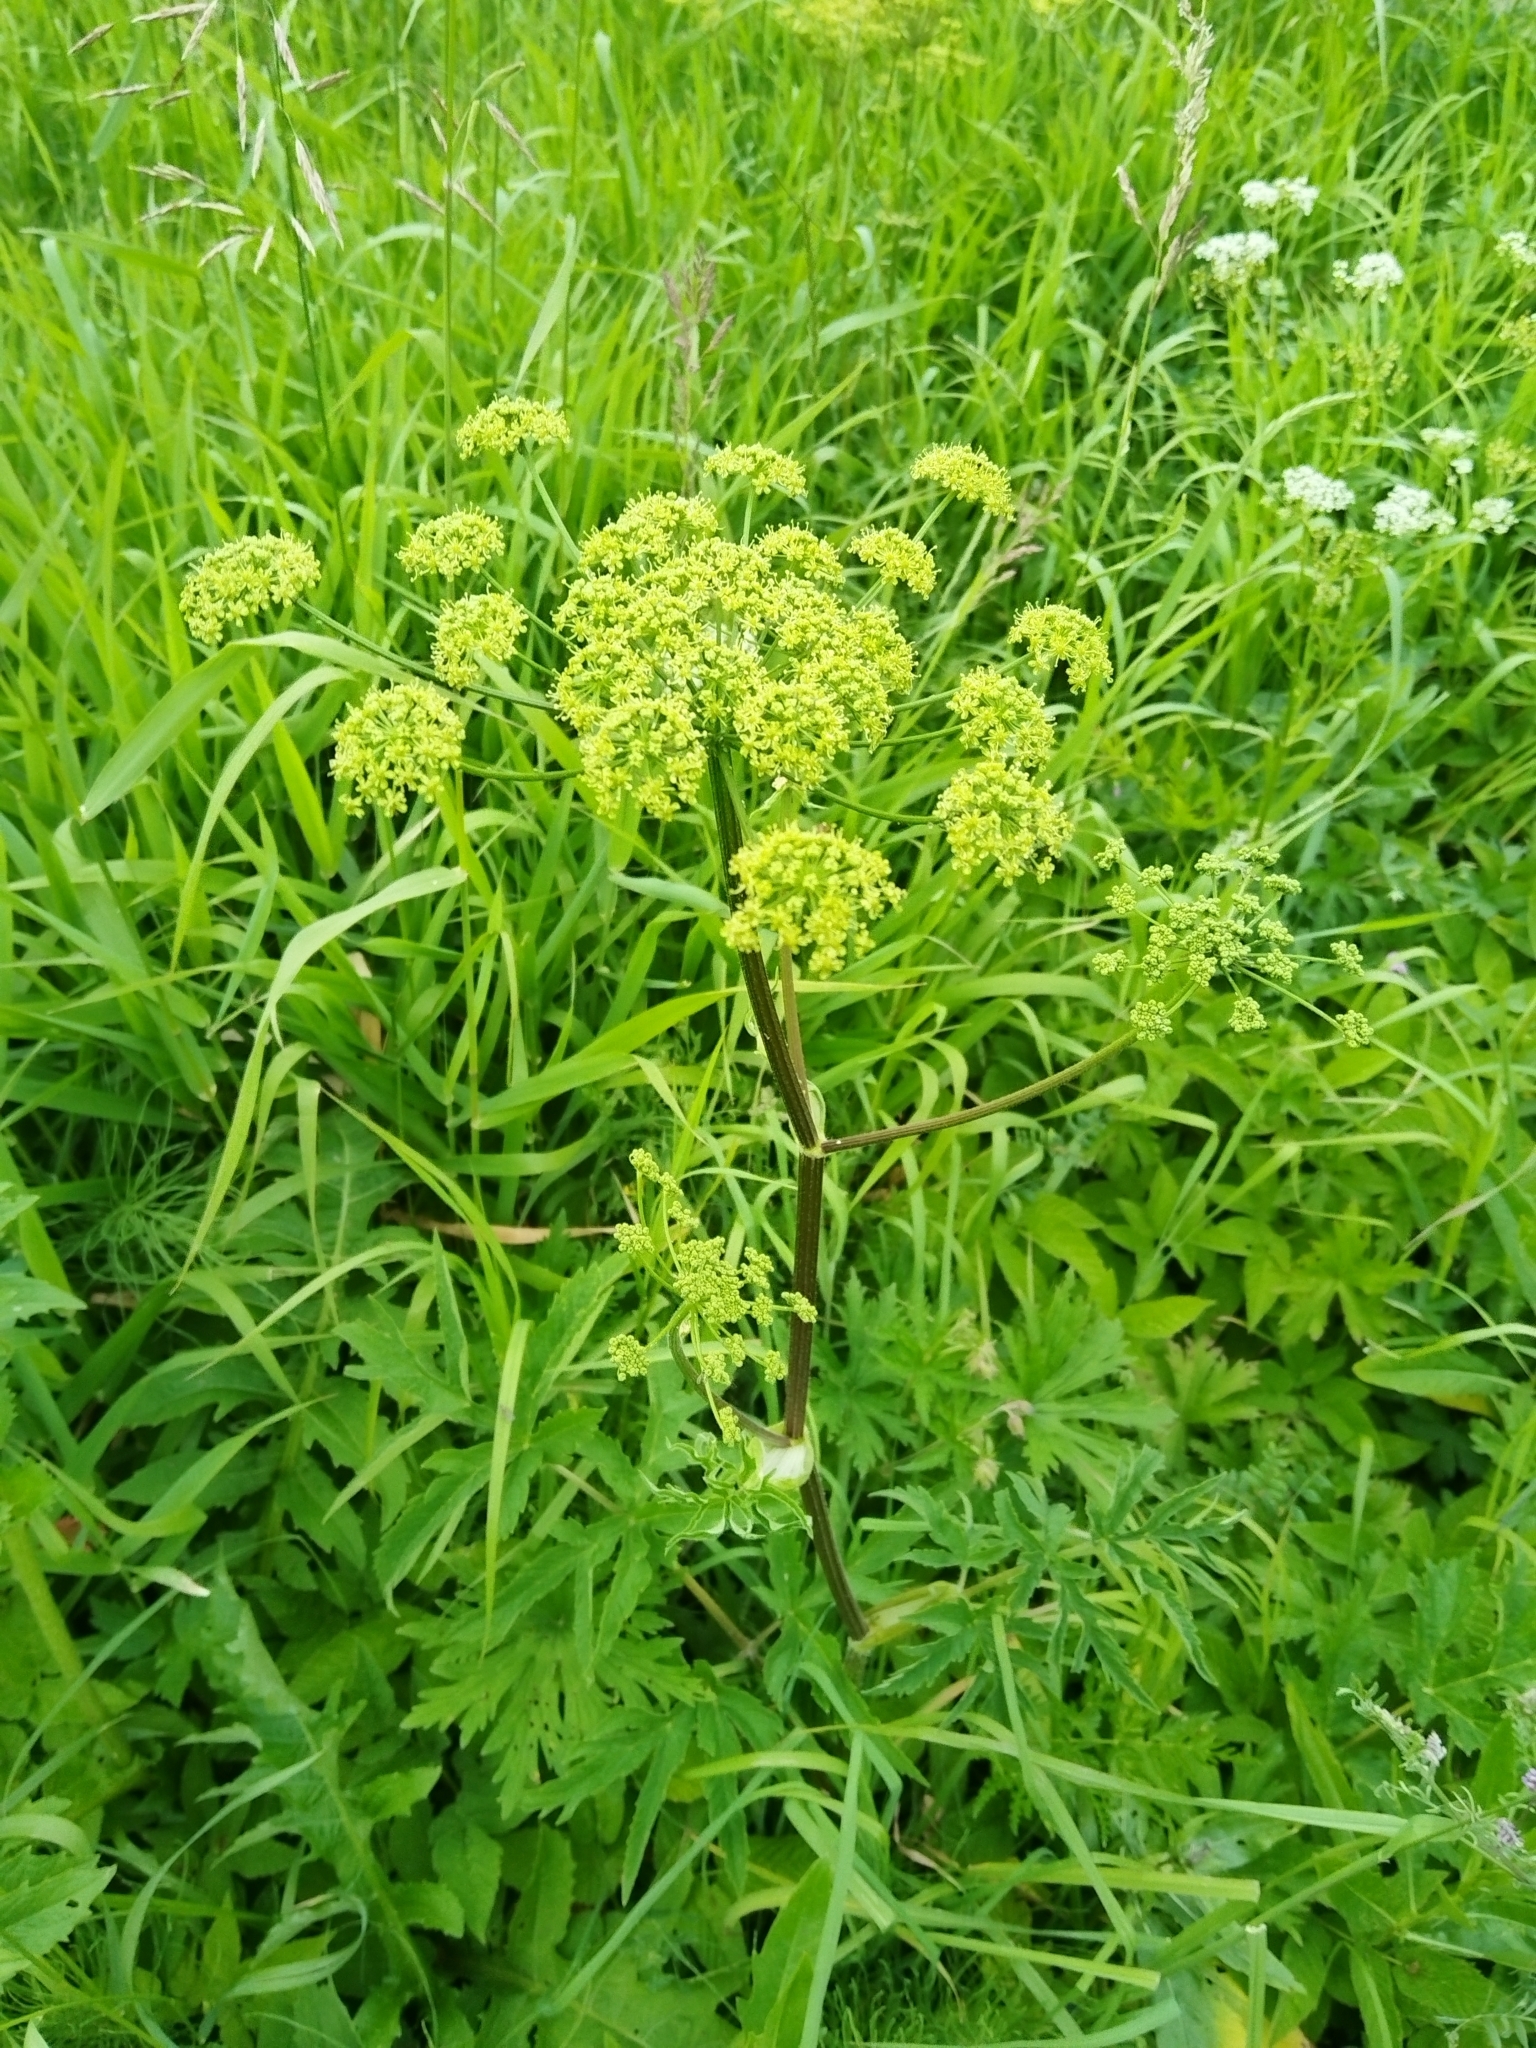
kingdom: Plantae
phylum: Tracheophyta
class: Magnoliopsida
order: Apiales
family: Apiaceae
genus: Heracleum
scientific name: Heracleum sphondylium
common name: Hogweed
